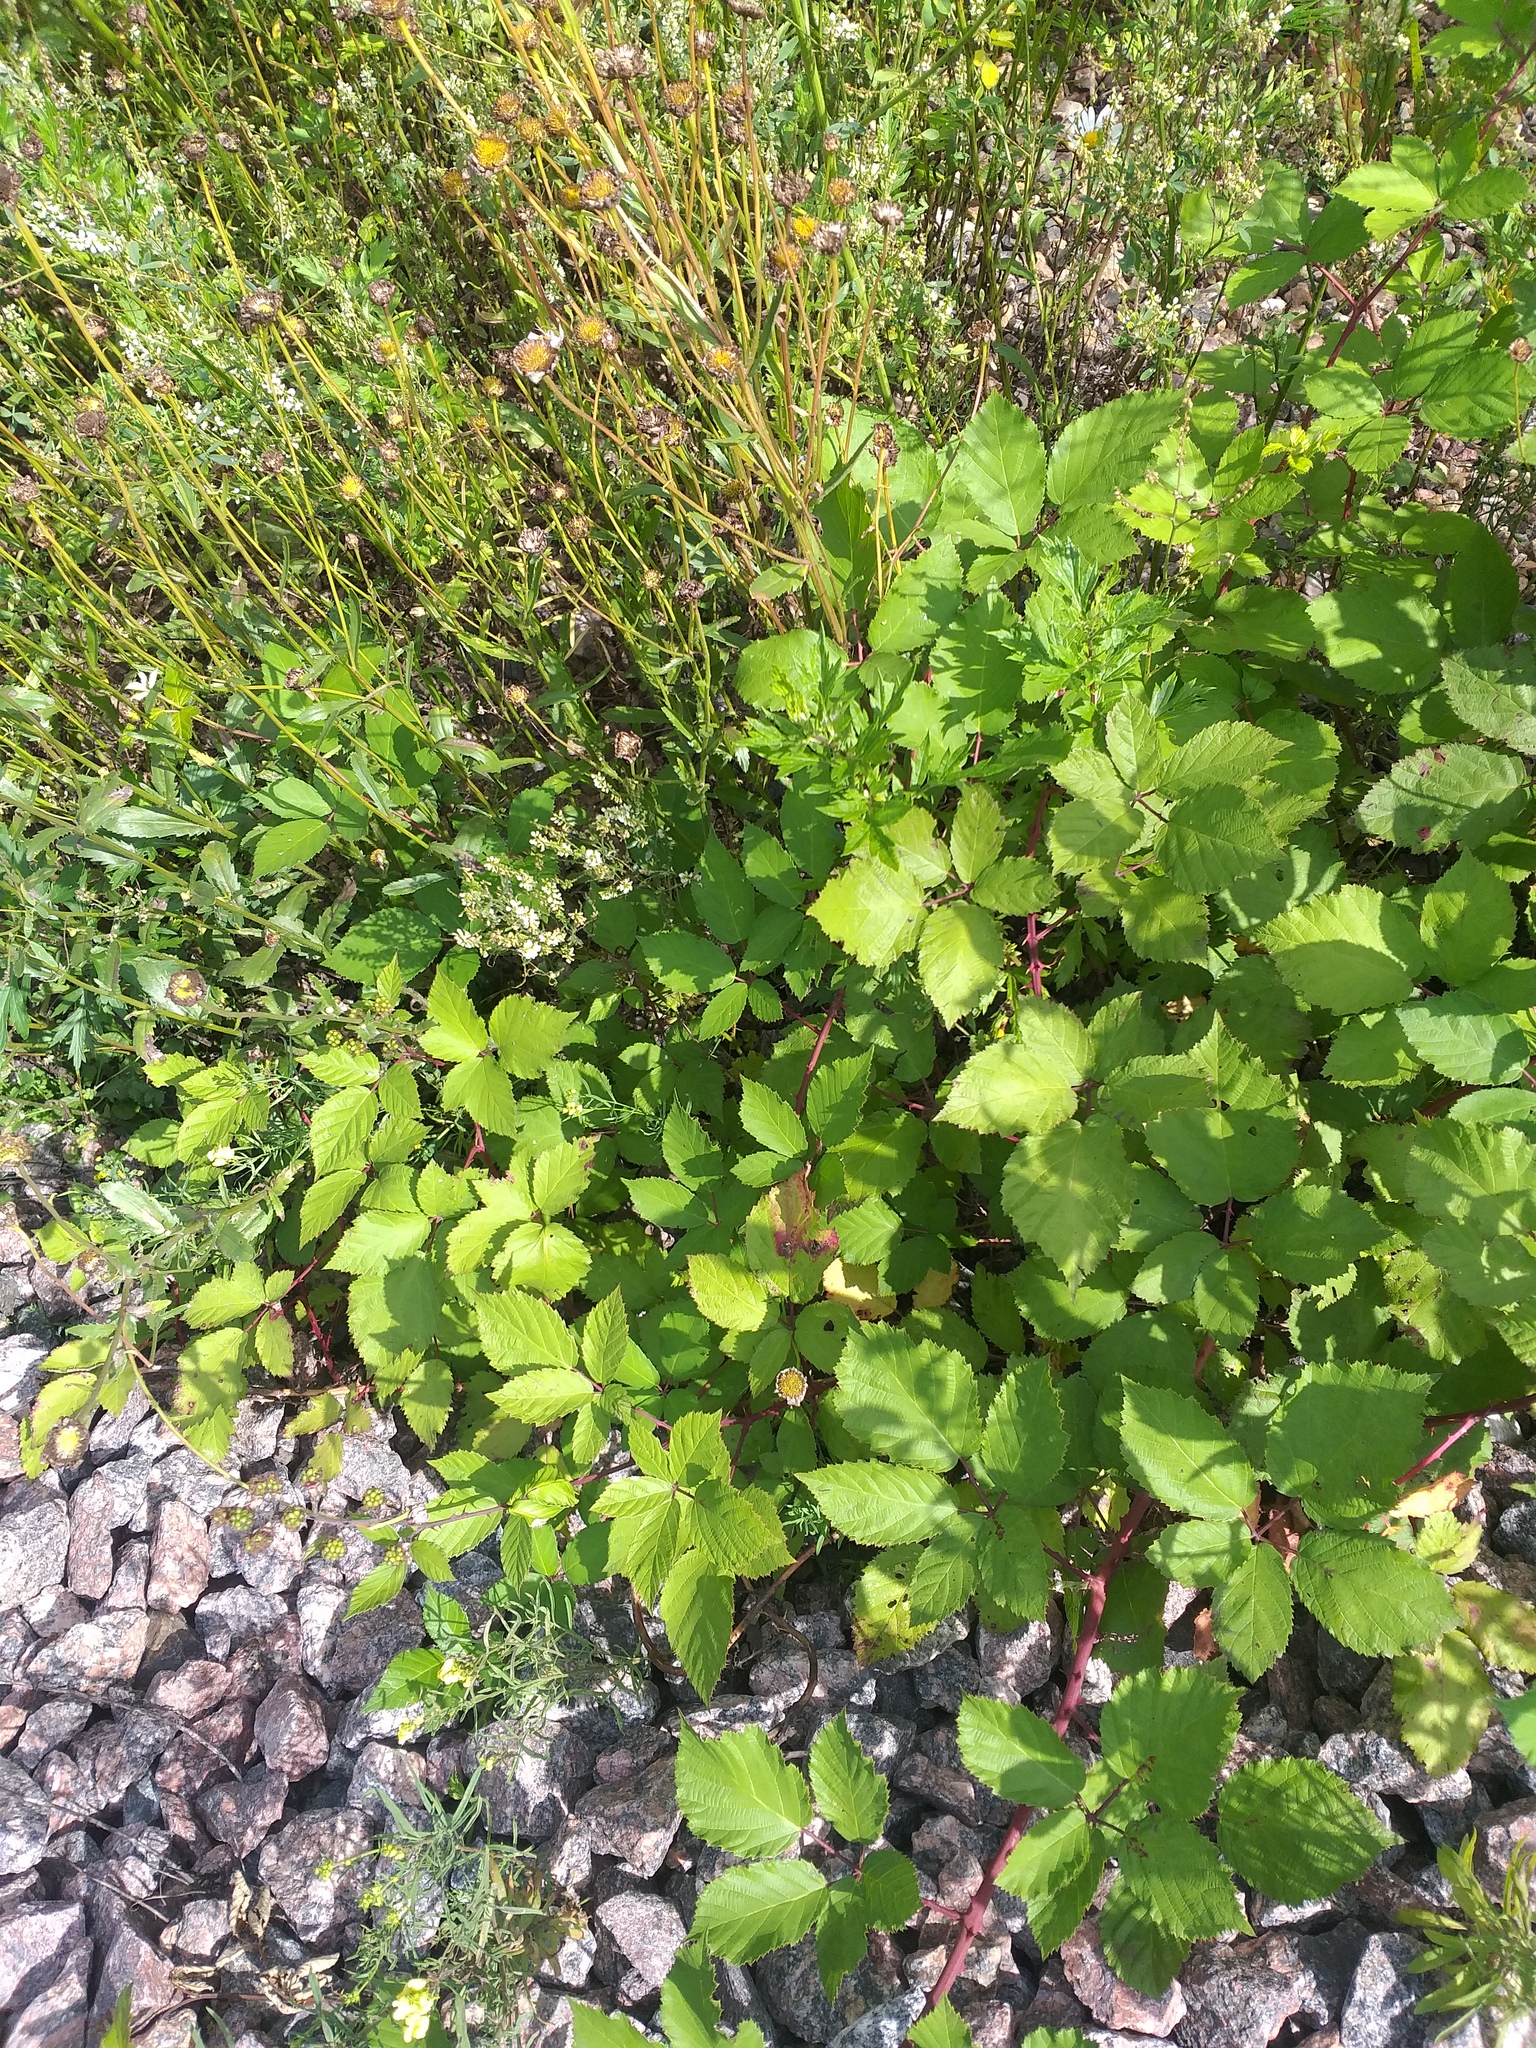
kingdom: Plantae
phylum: Tracheophyta
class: Magnoliopsida
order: Rosales
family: Rosaceae
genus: Rubus
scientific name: Rubus procerus
